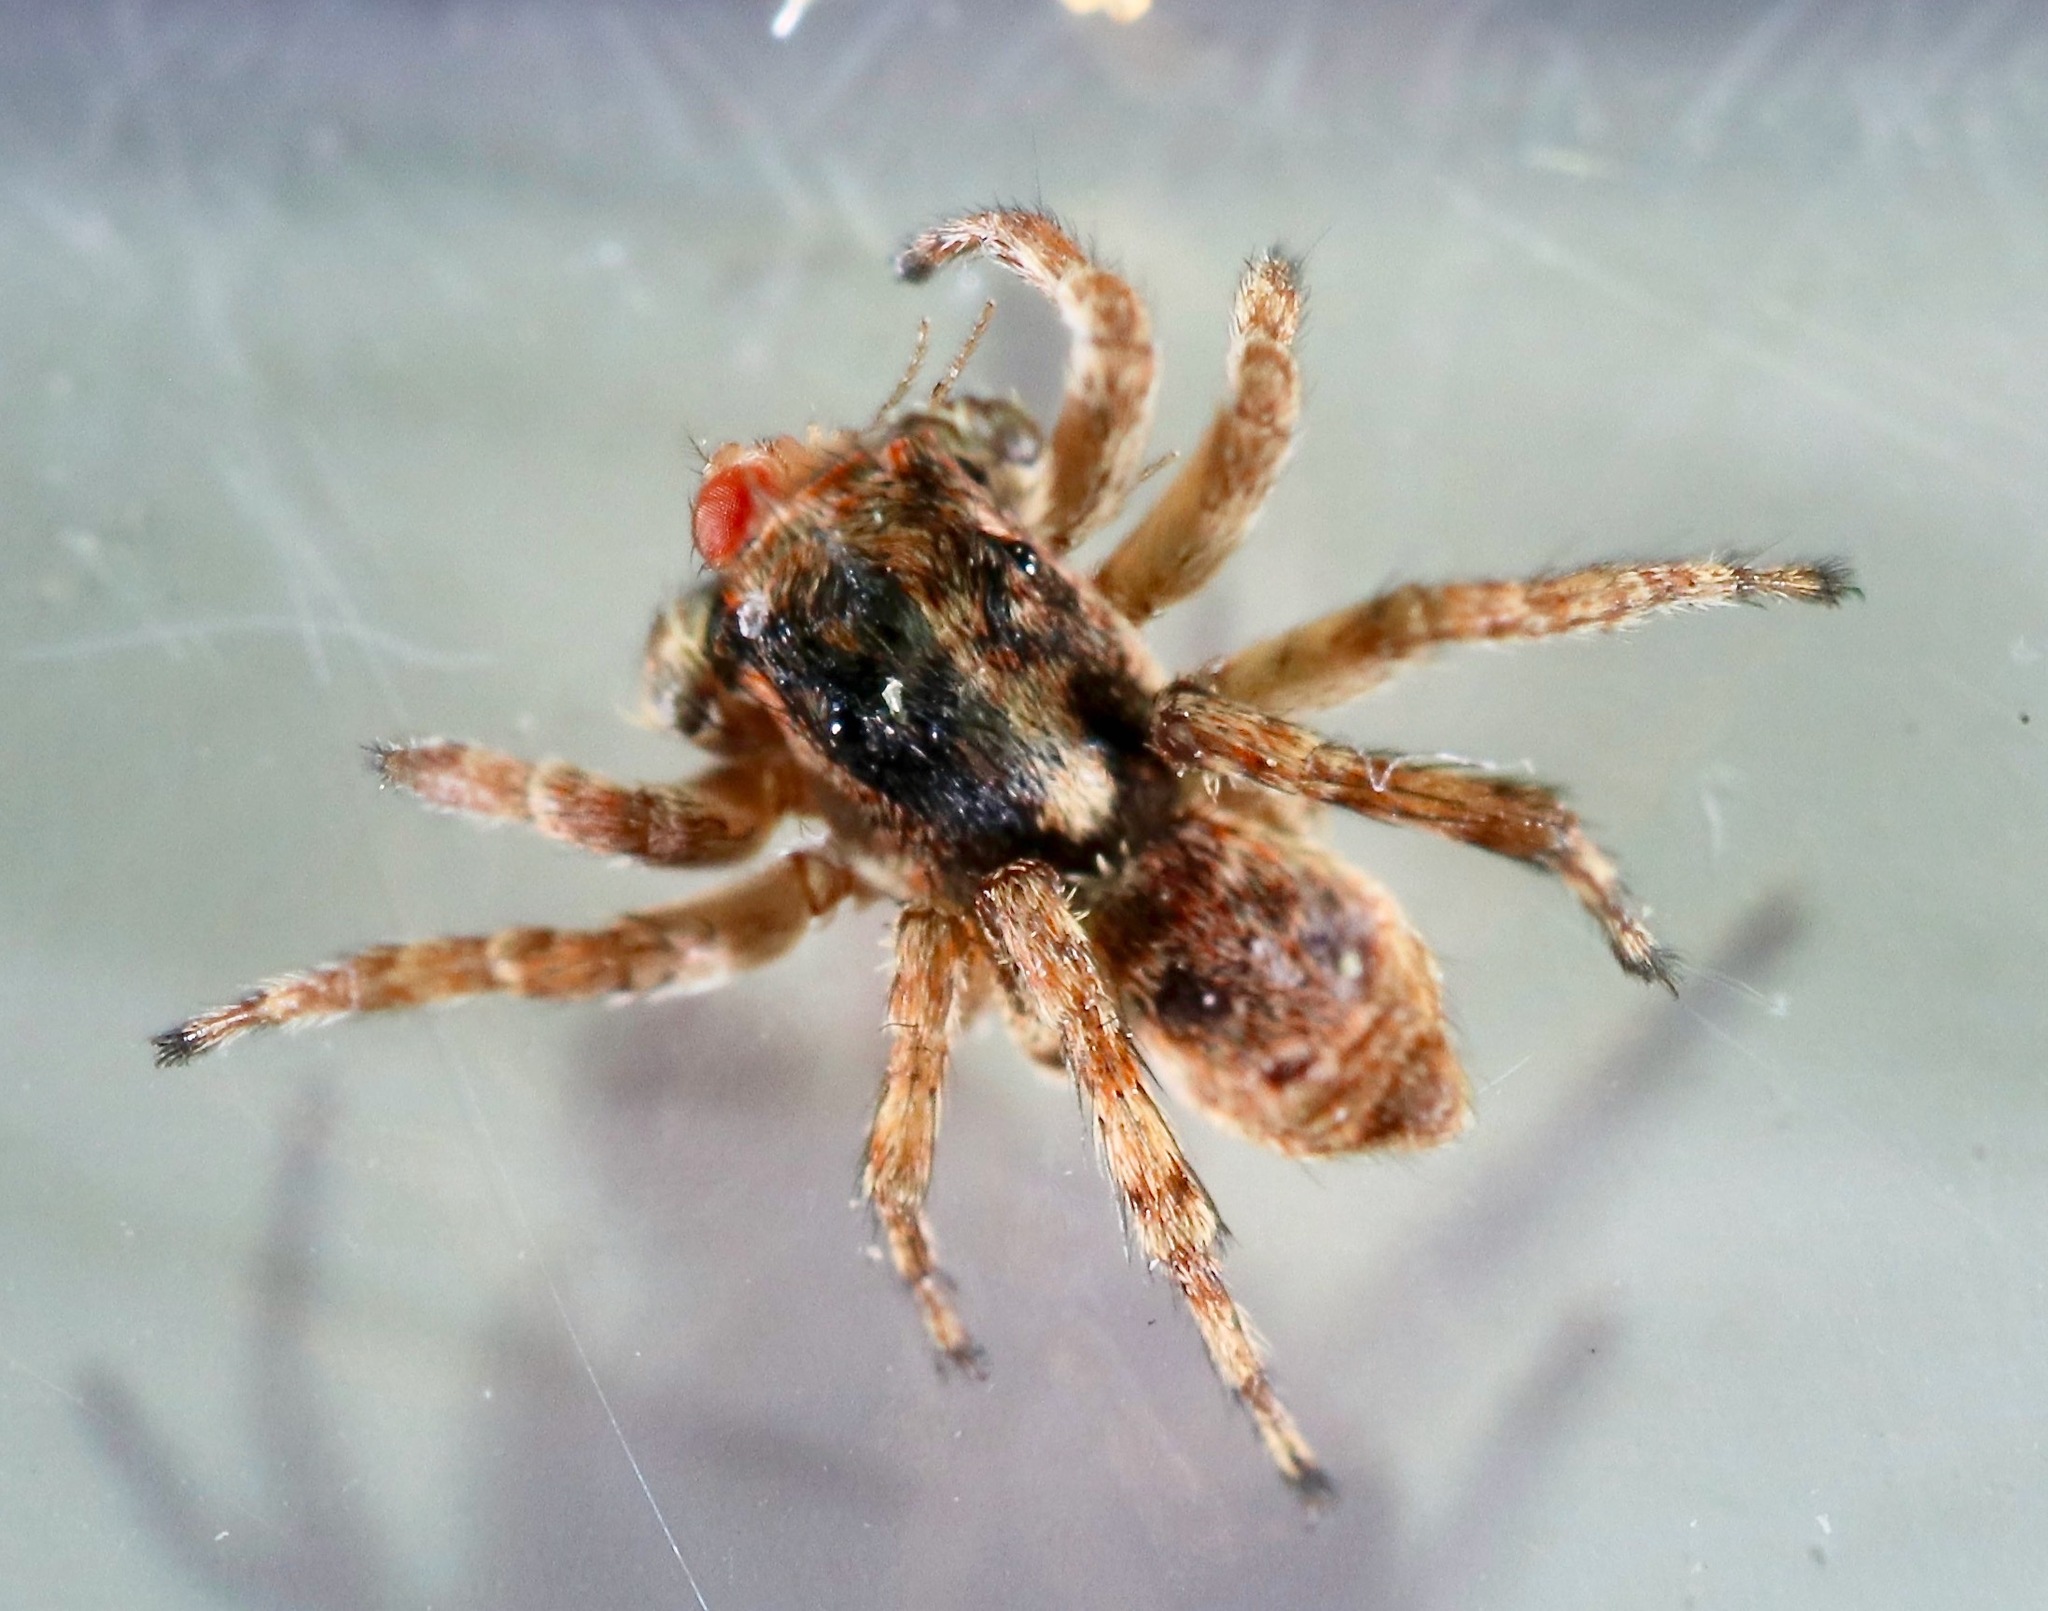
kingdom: Animalia
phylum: Arthropoda
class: Arachnida
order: Araneae
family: Salticidae
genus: Attulus
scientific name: Attulus fasciger
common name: Asiatic wall jumping spider
